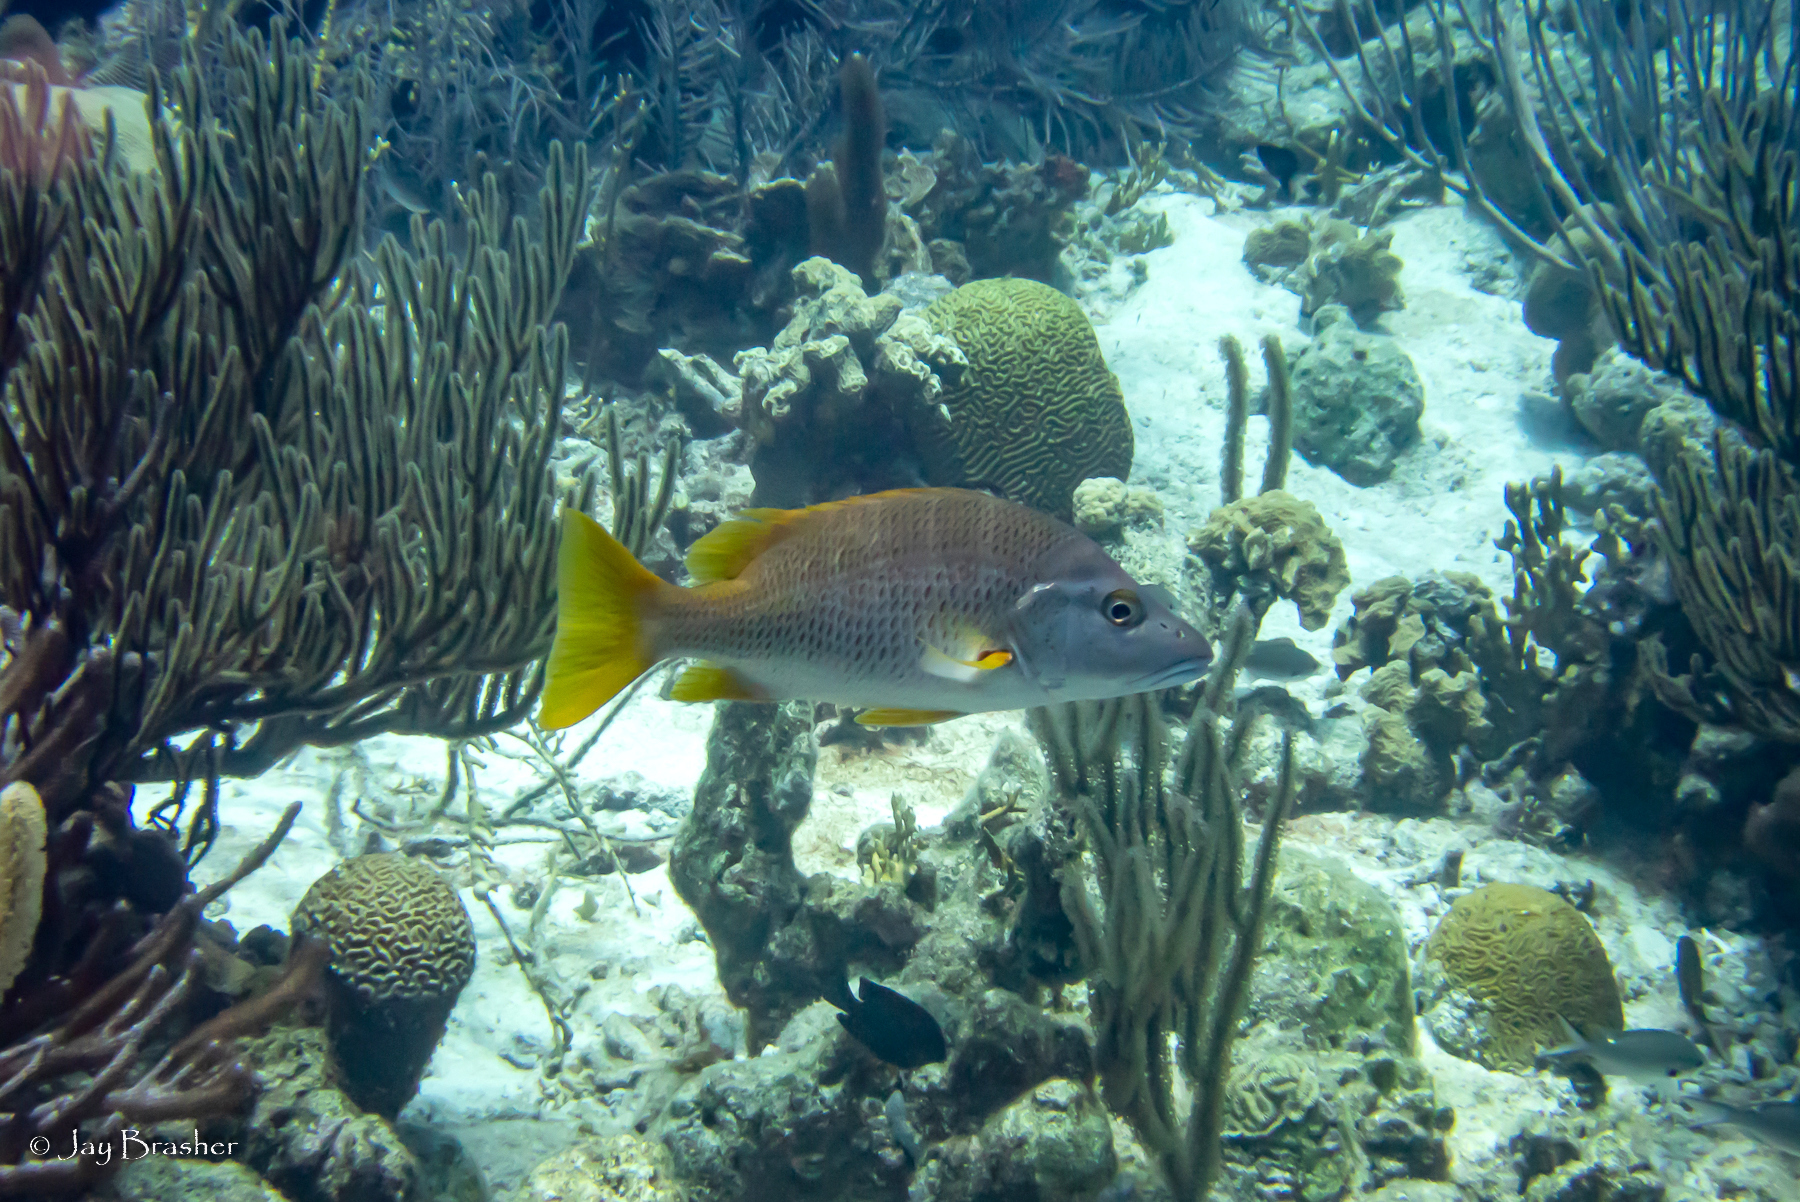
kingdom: Animalia
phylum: Chordata
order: Perciformes
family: Lutjanidae
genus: Lutjanus
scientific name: Lutjanus apodus
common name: Schoolmaster
